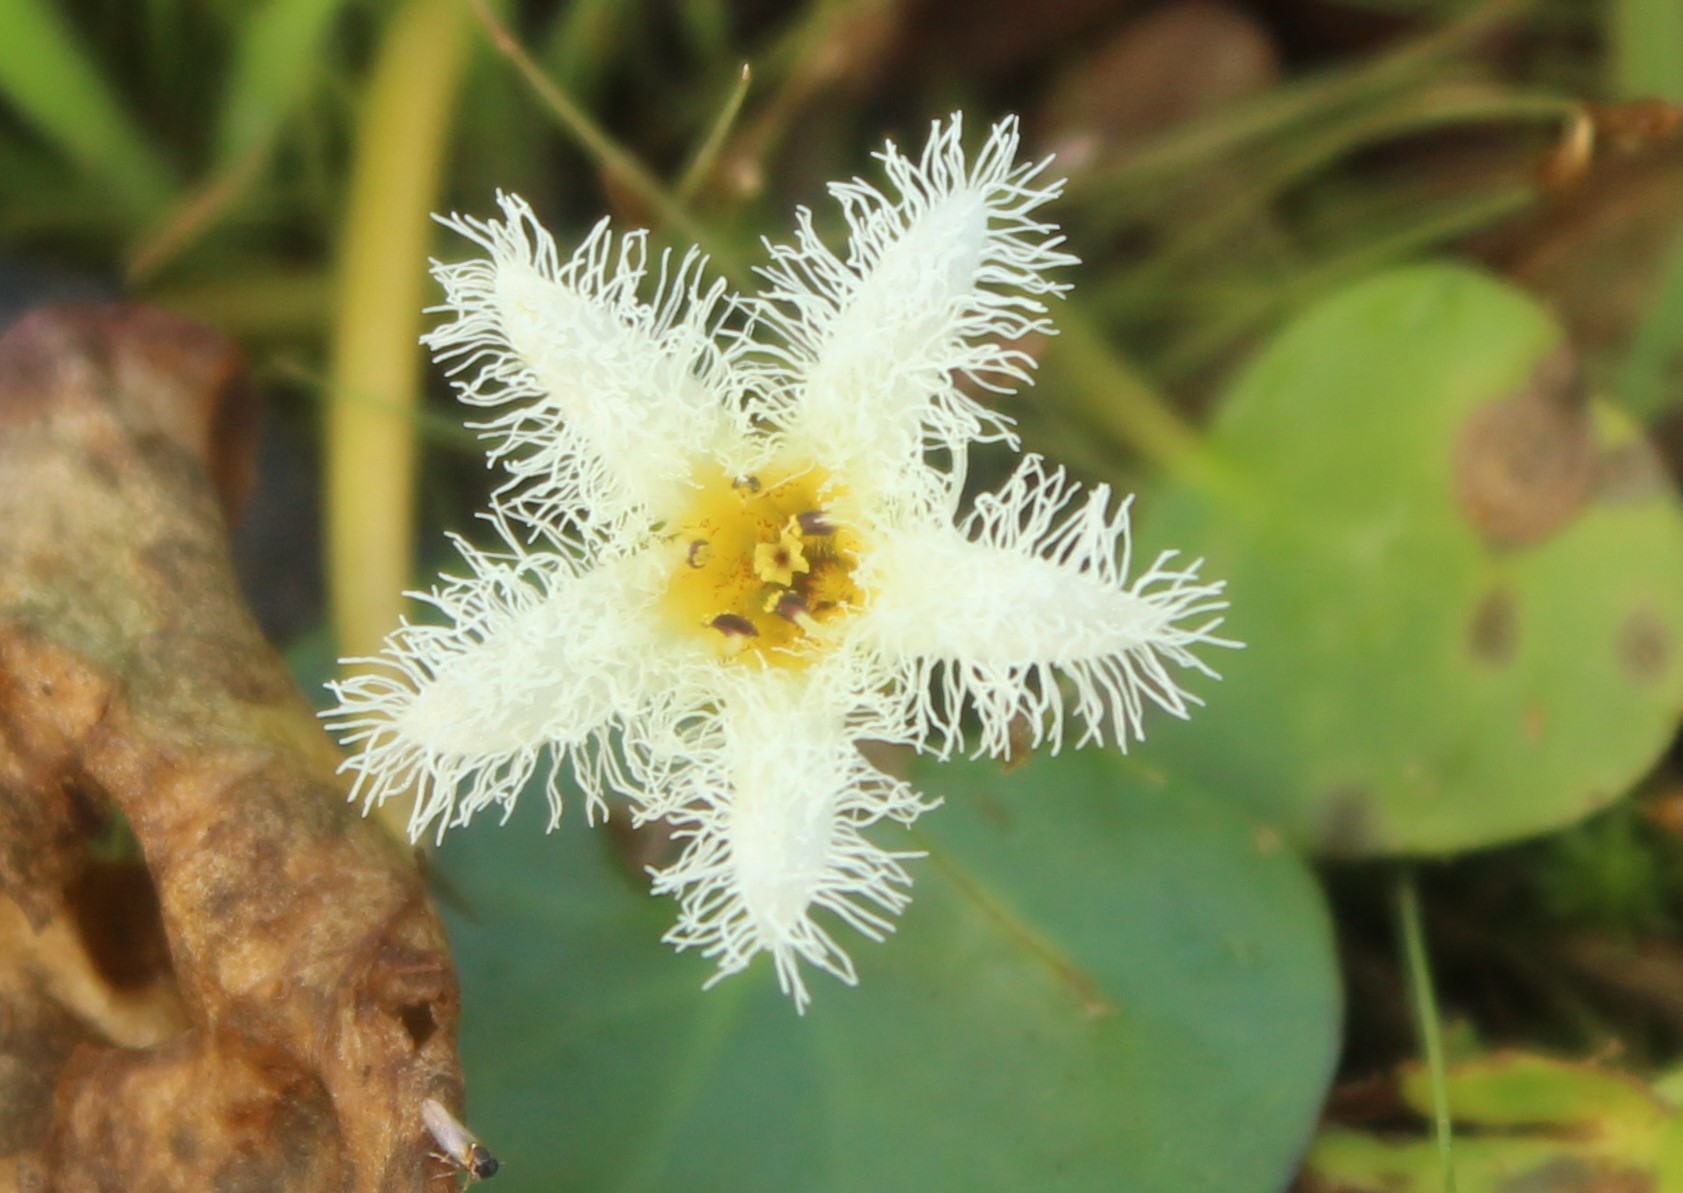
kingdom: Plantae
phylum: Tracheophyta
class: Magnoliopsida
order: Asterales
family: Menyanthaceae
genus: Nymphoides
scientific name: Nymphoides humboldtiana
